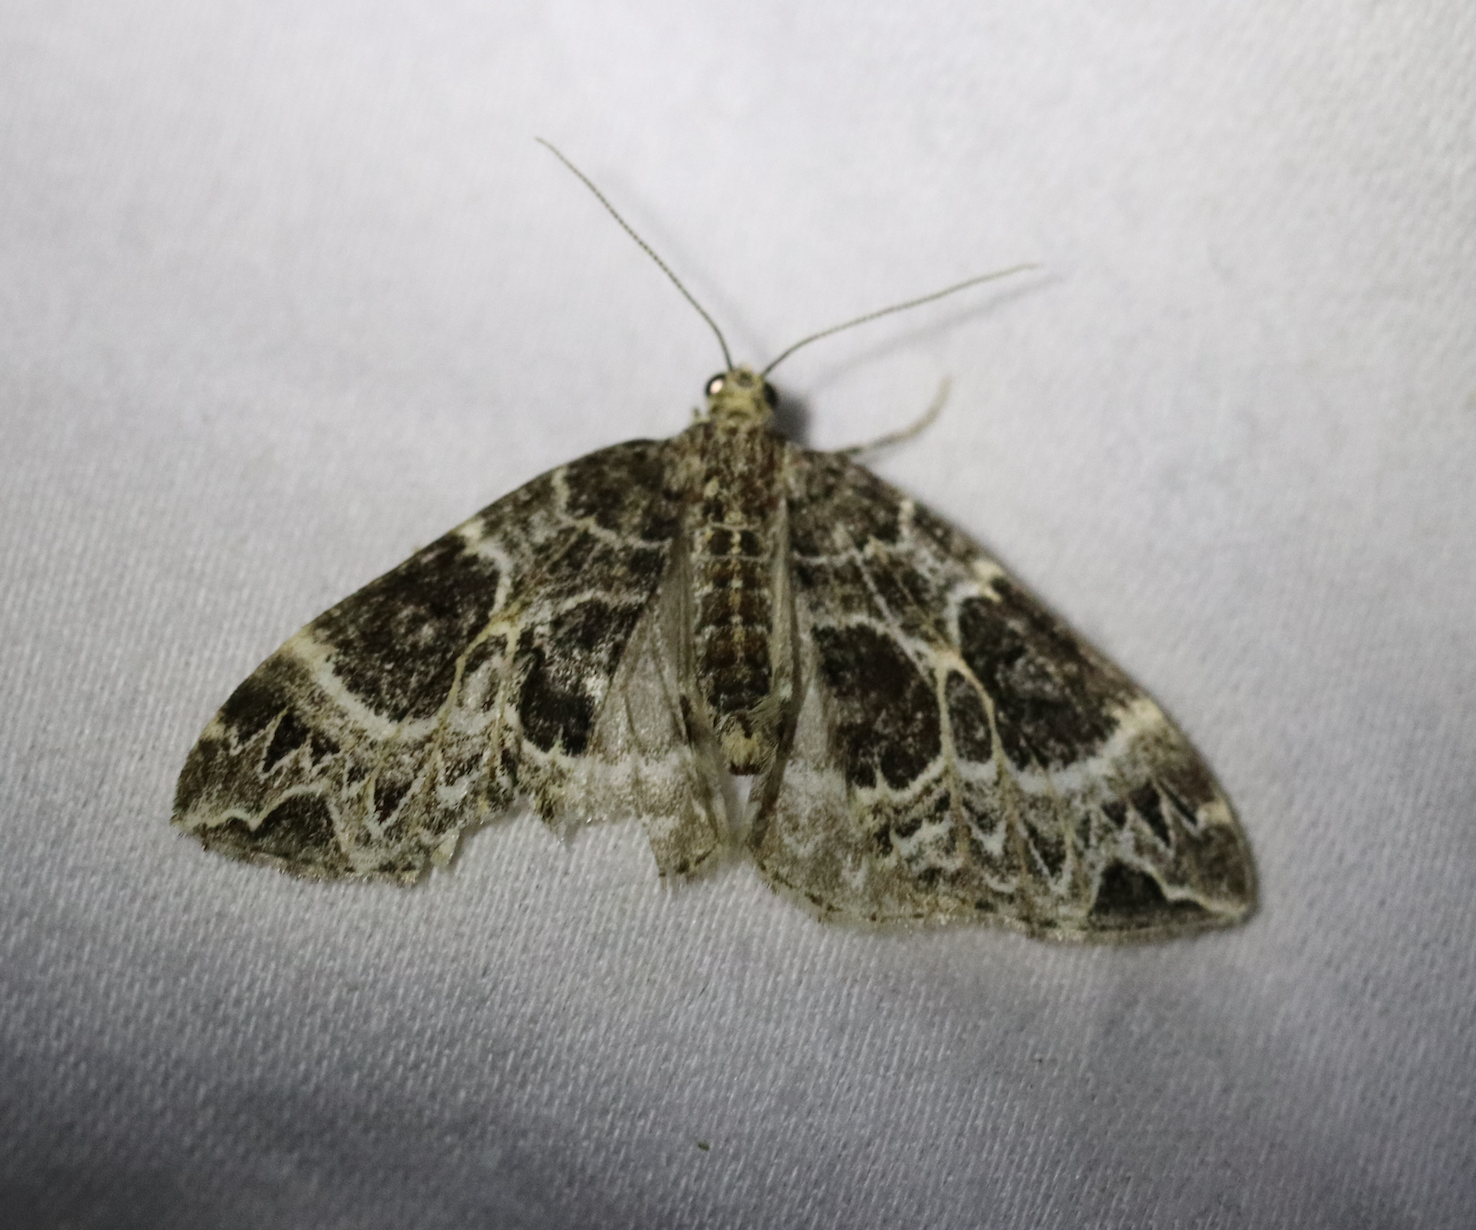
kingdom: Animalia
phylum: Arthropoda
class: Insecta
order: Lepidoptera
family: Geometridae
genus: Ecliptopera
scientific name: Ecliptopera silaceata
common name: Small phoenix
